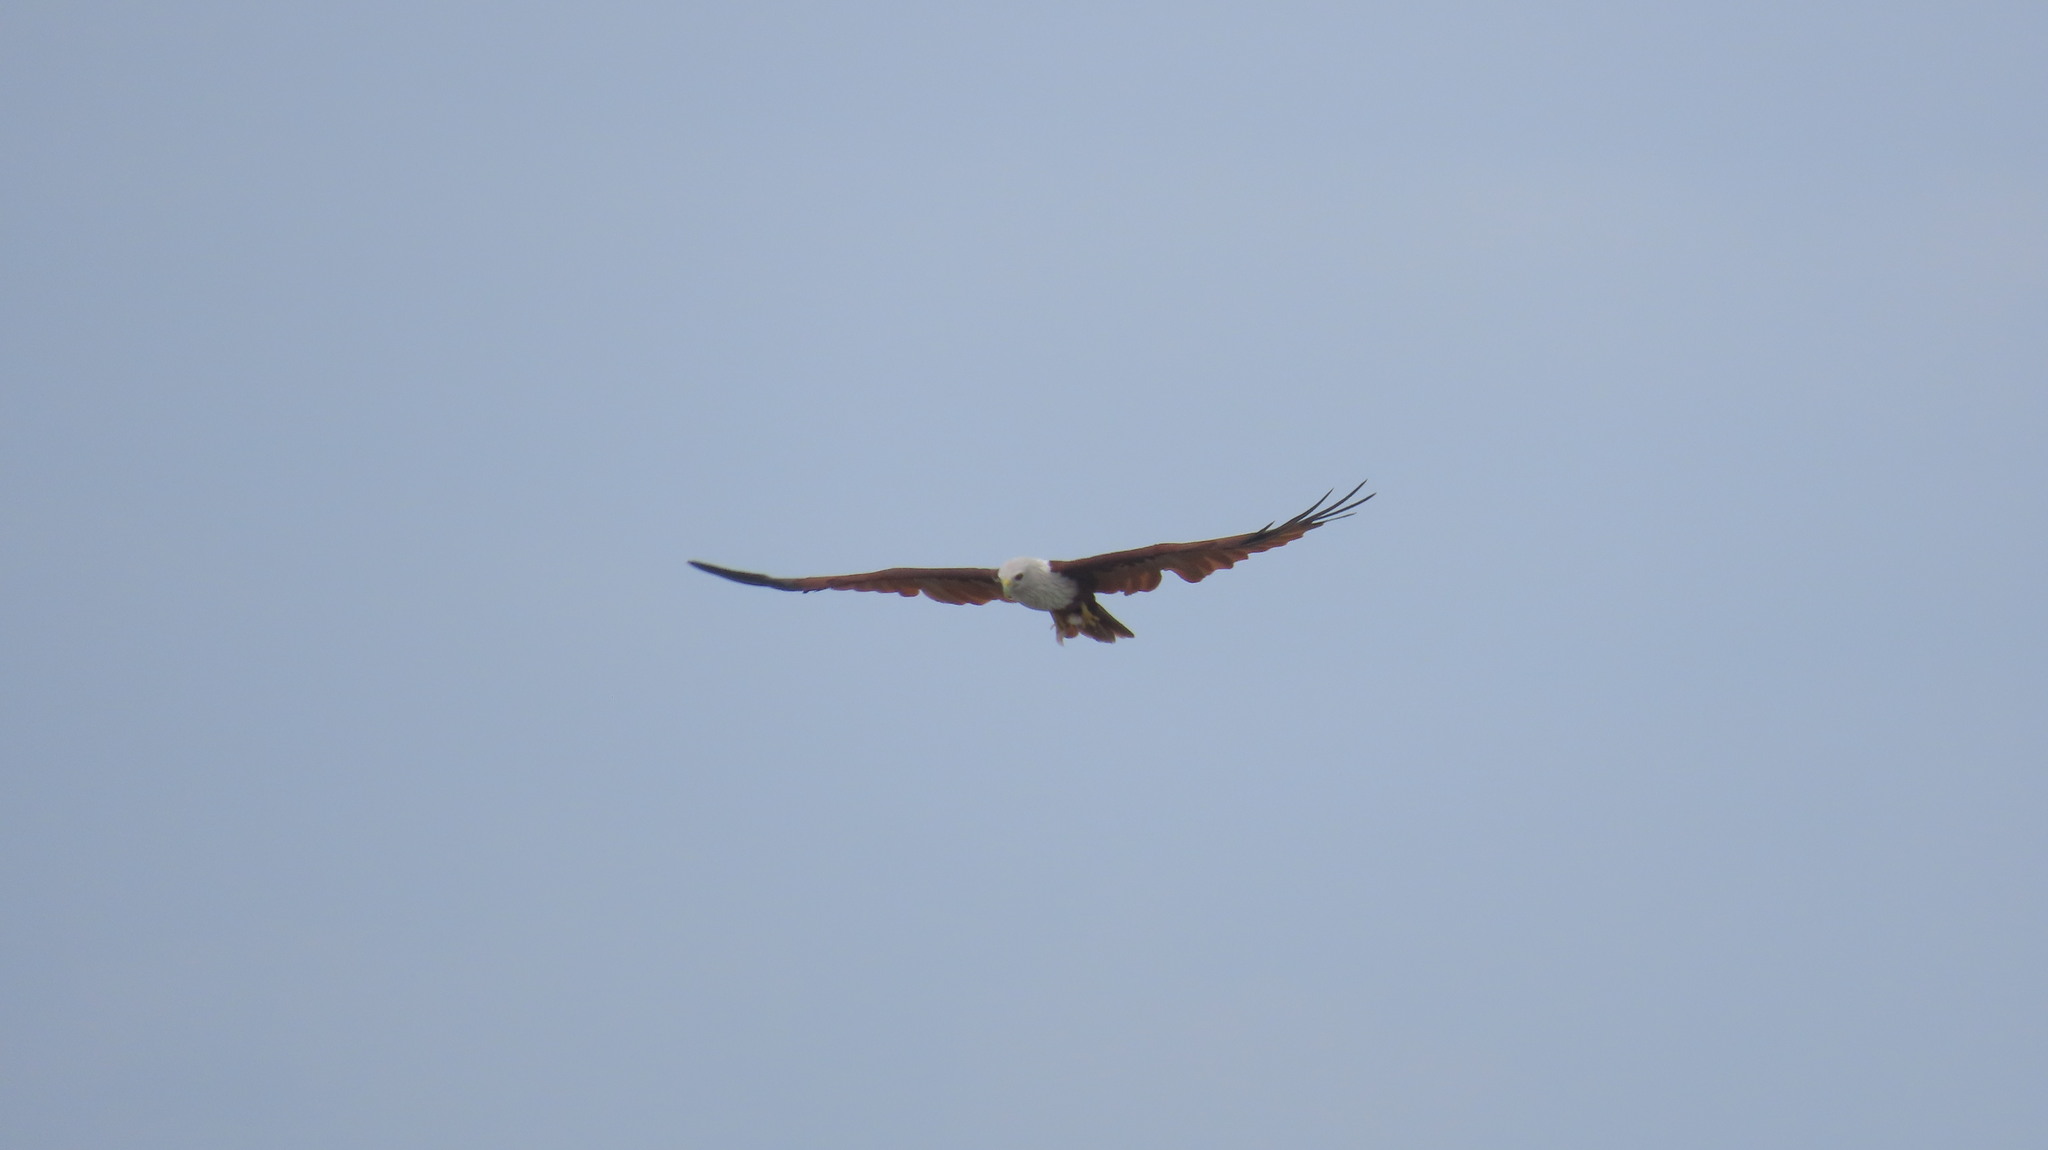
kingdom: Animalia
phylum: Chordata
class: Aves
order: Accipitriformes
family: Accipitridae
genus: Haliastur
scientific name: Haliastur indus
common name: Brahminy kite
